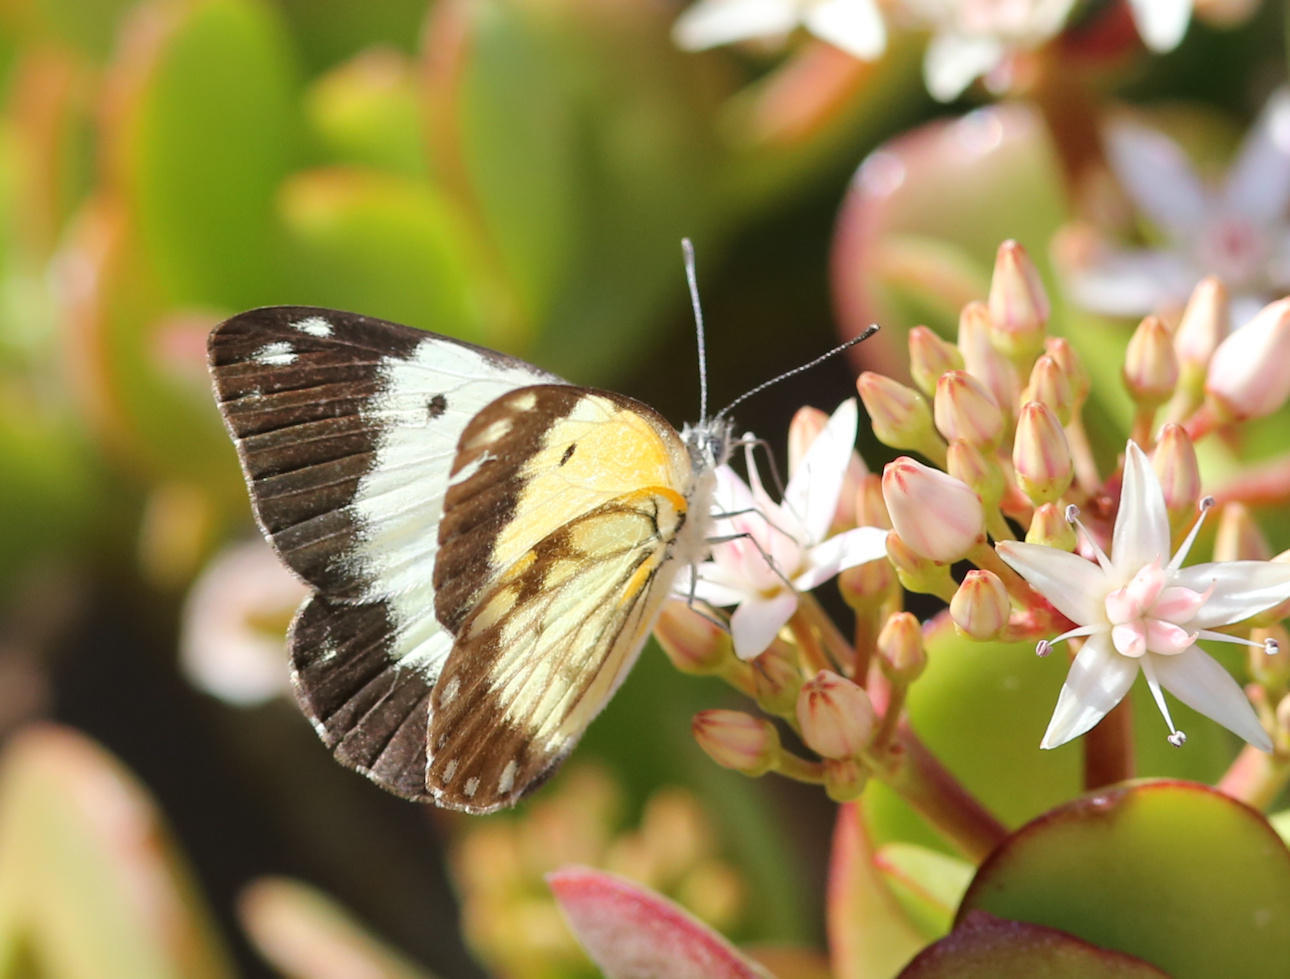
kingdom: Animalia
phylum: Arthropoda
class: Insecta
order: Lepidoptera
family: Pieridae
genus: Belenois
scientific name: Belenois creona
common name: African caper white
